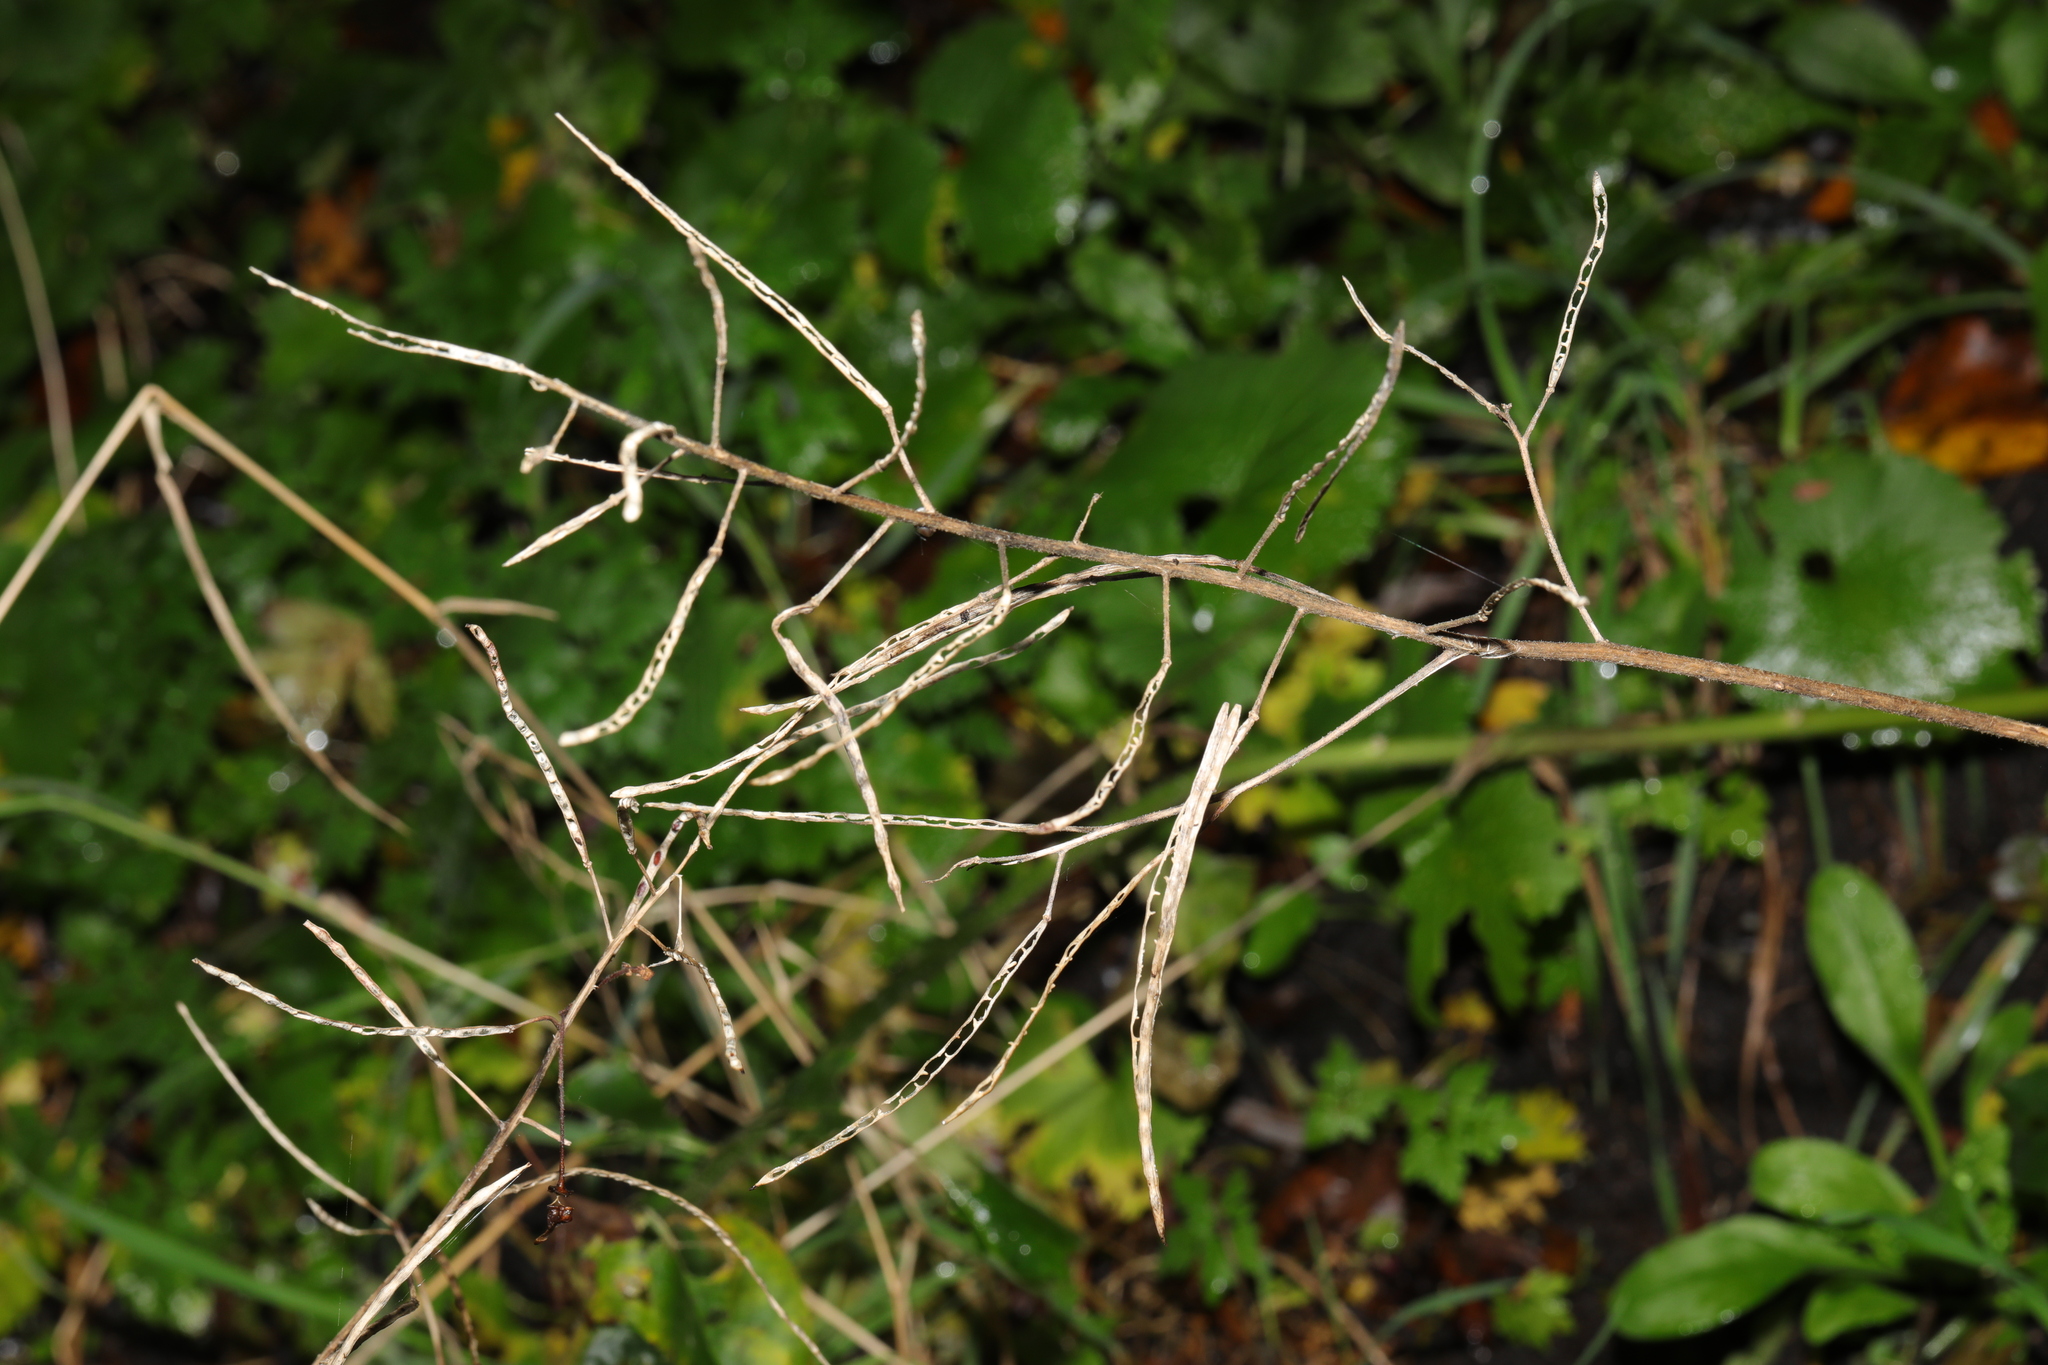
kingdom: Plantae
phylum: Tracheophyta
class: Magnoliopsida
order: Brassicales
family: Brassicaceae
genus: Alliaria
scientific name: Alliaria petiolata
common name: Garlic mustard
